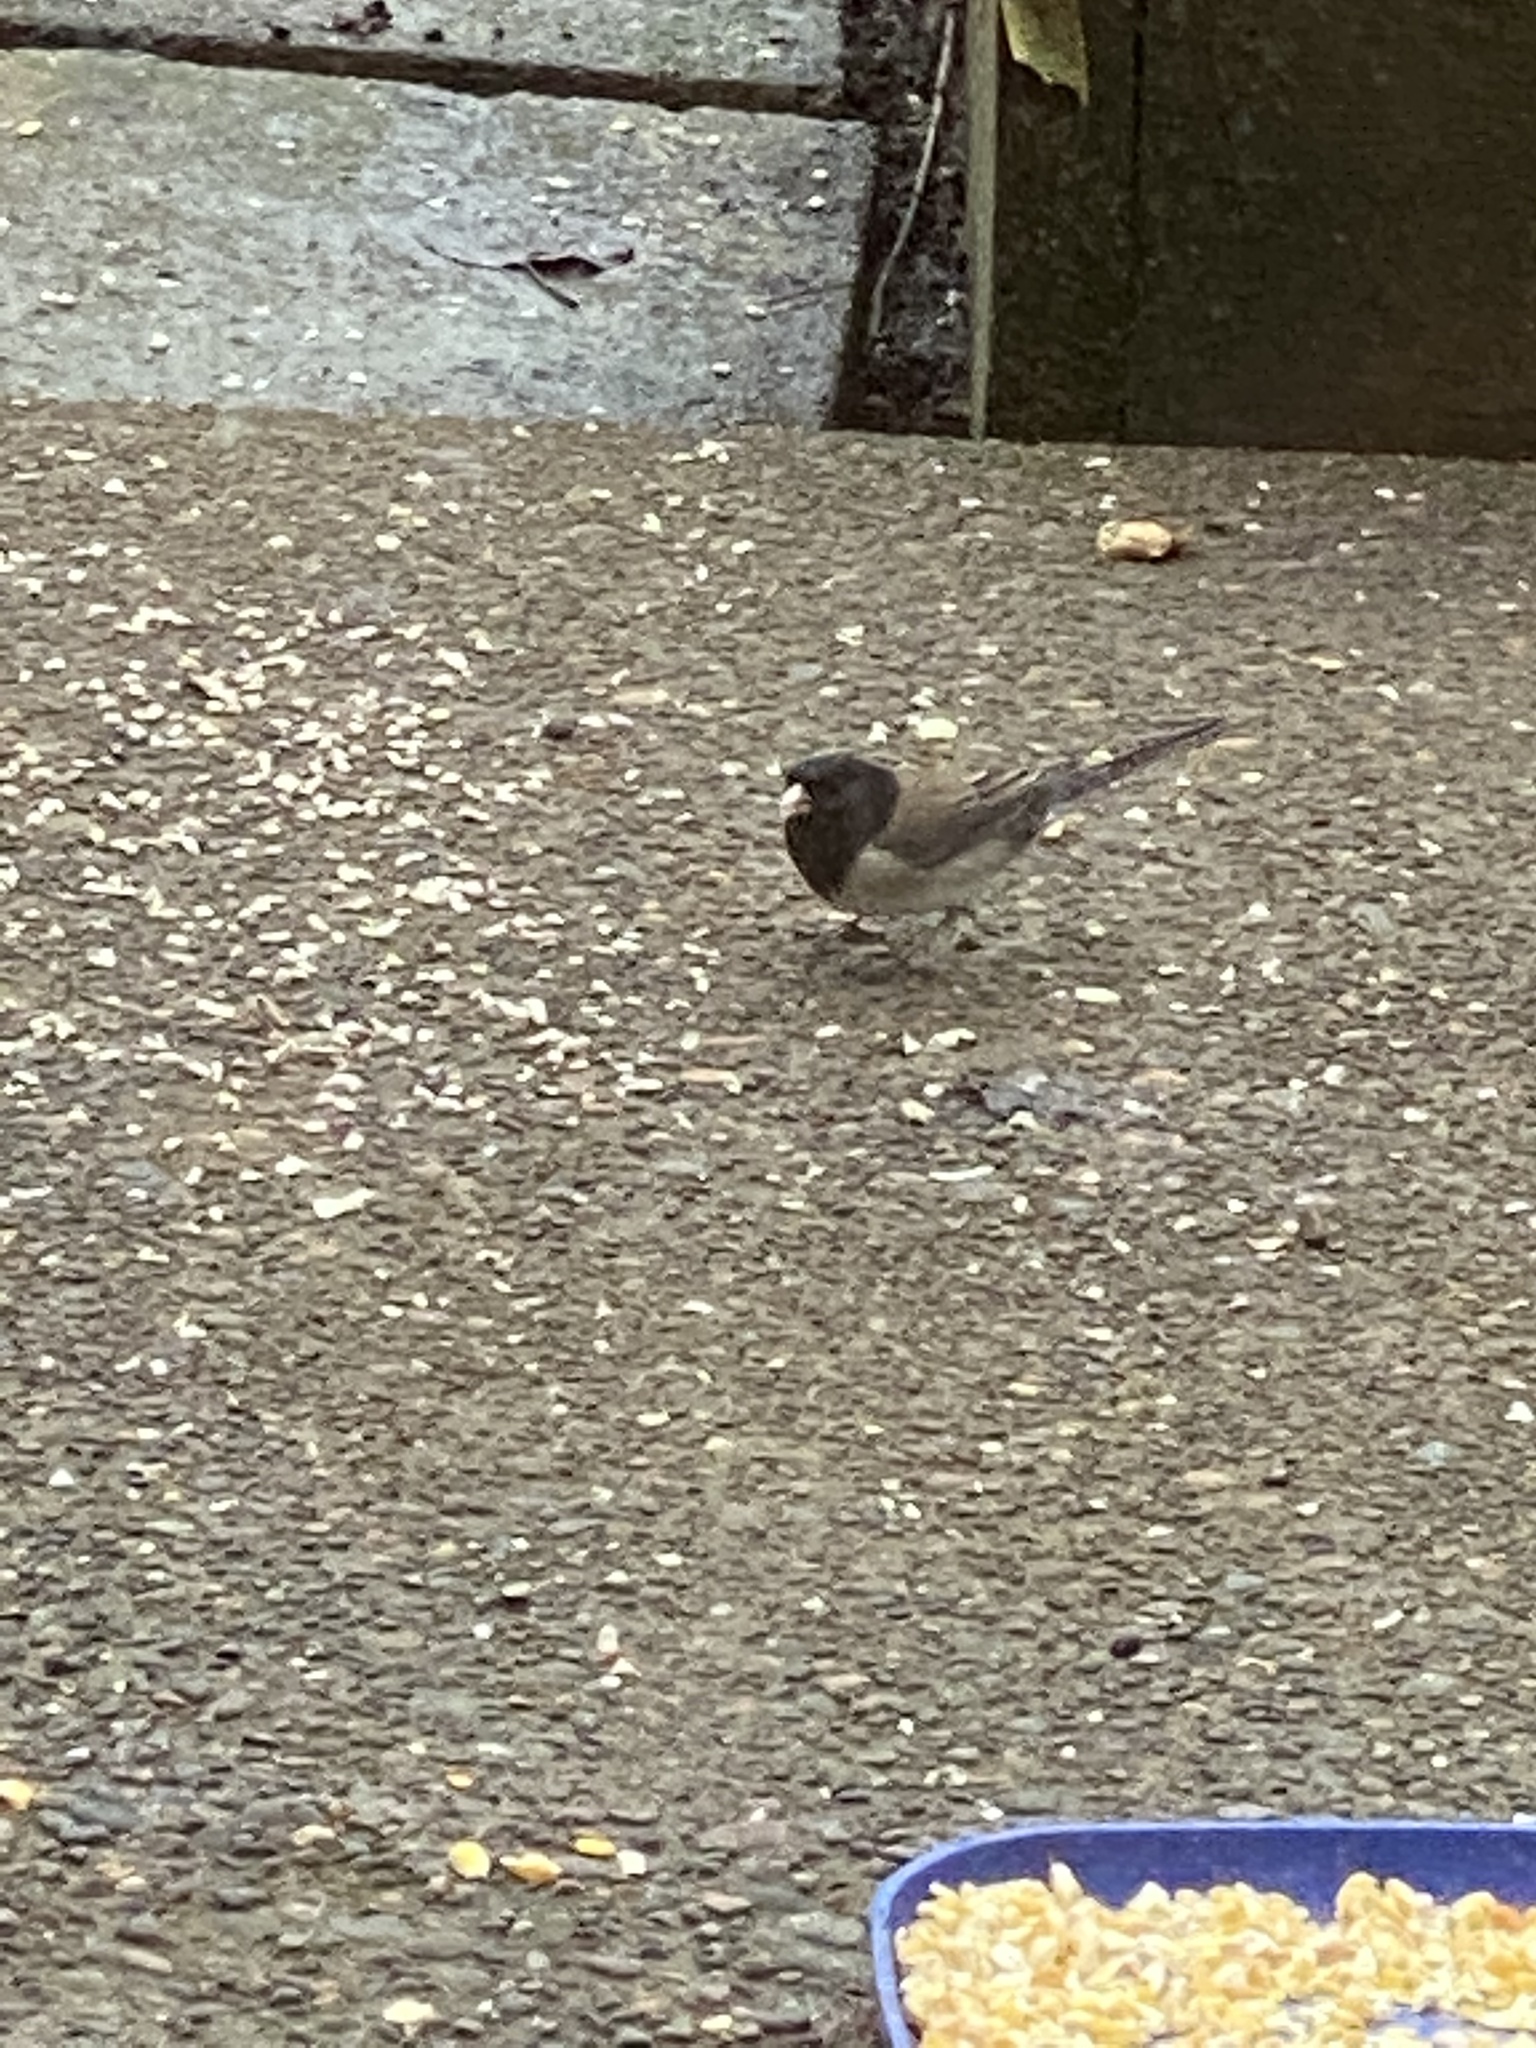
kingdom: Animalia
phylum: Chordata
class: Aves
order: Passeriformes
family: Passerellidae
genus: Junco
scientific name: Junco hyemalis
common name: Dark-eyed junco
